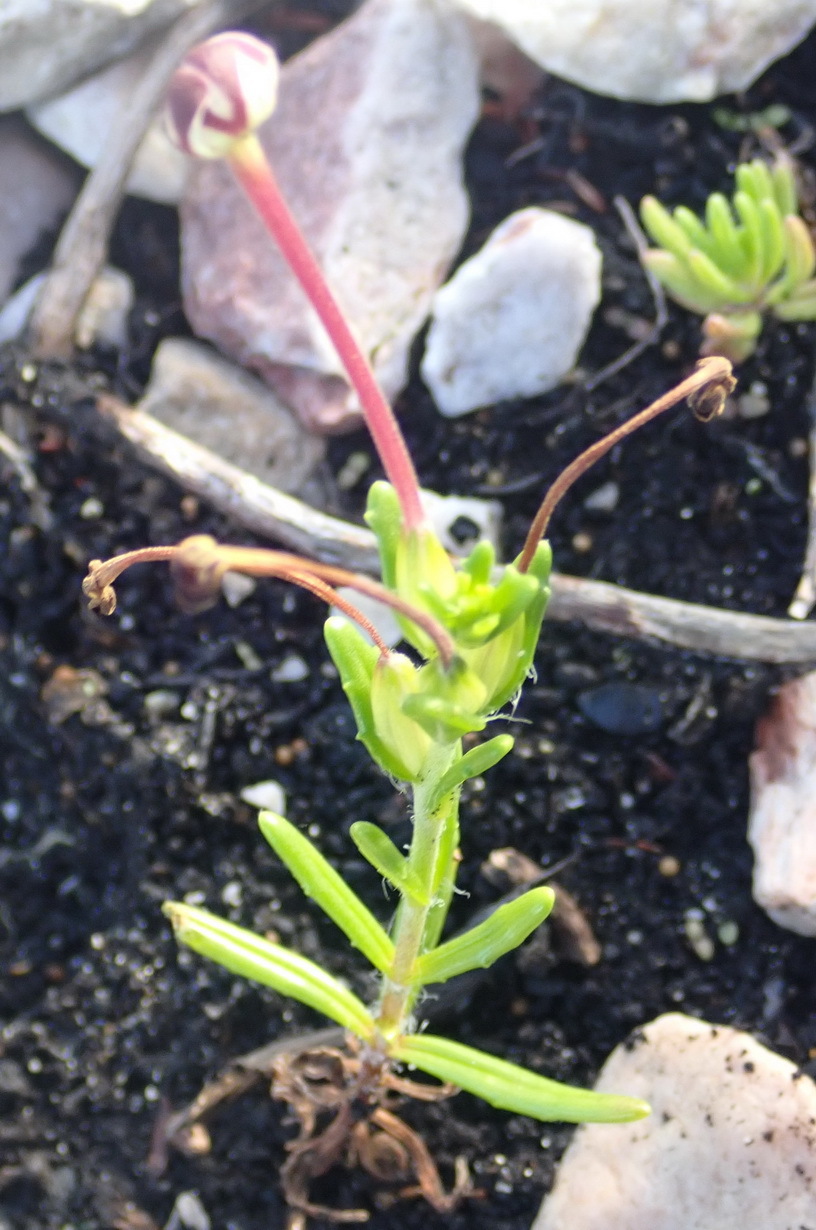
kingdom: Plantae
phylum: Tracheophyta
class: Magnoliopsida
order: Lamiales
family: Scrophulariaceae
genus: Zaluzianskya
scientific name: Zaluzianskya capensis
